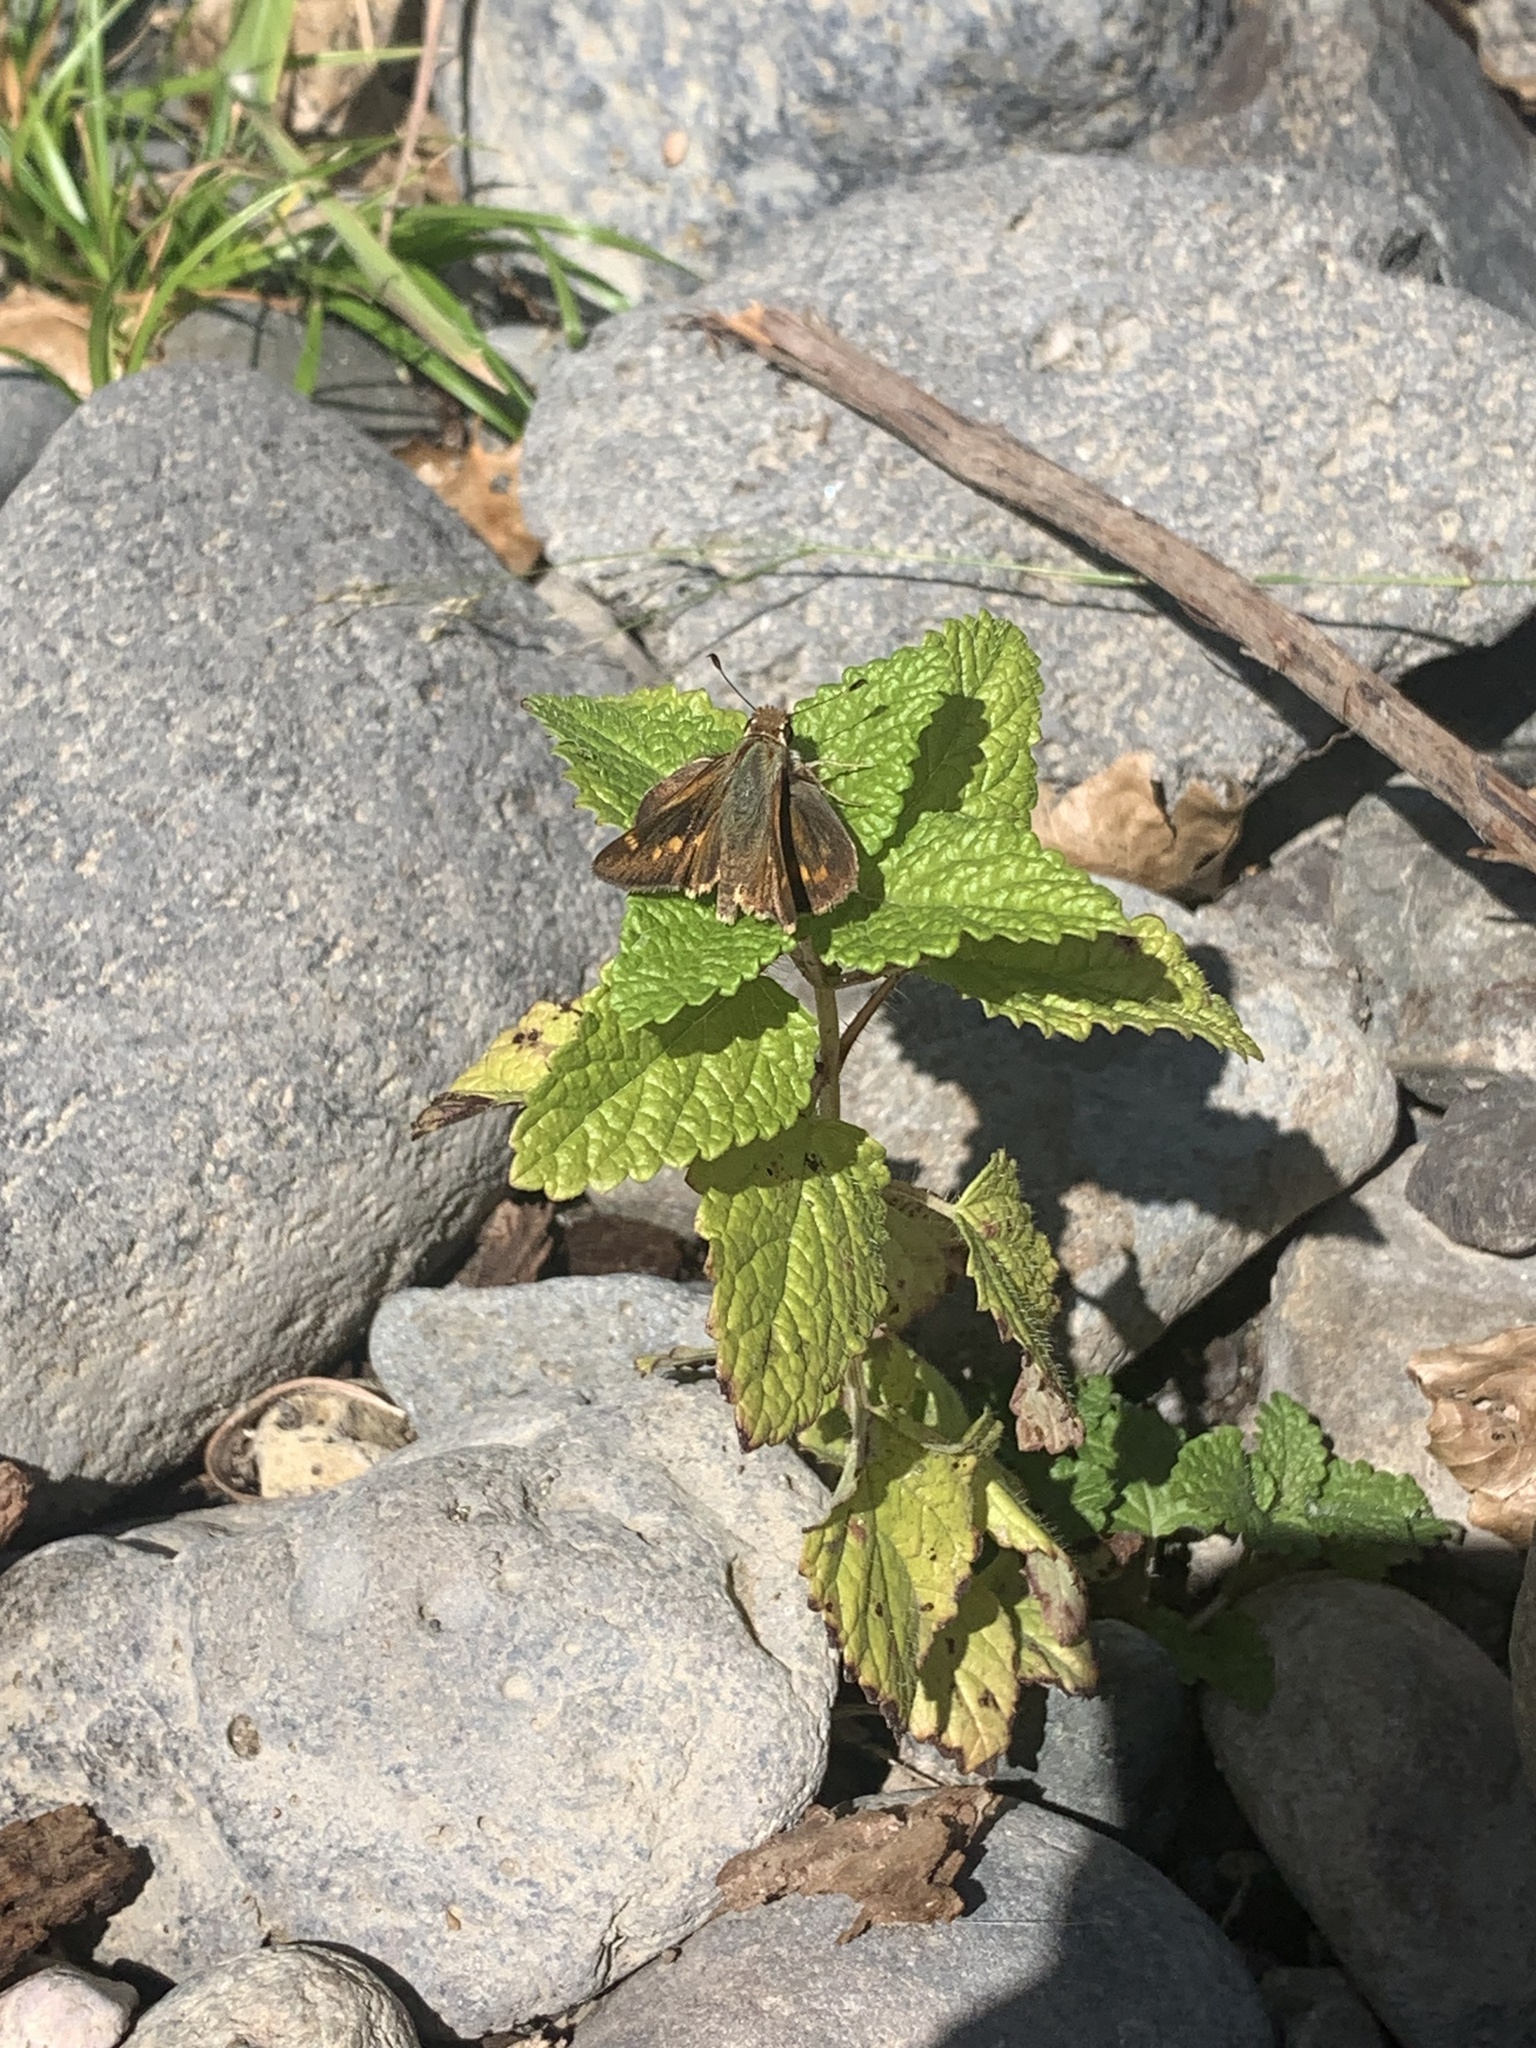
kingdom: Animalia
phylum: Arthropoda
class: Insecta
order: Lepidoptera
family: Hesperiidae
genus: Lon
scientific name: Lon melane
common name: Umber skipper
